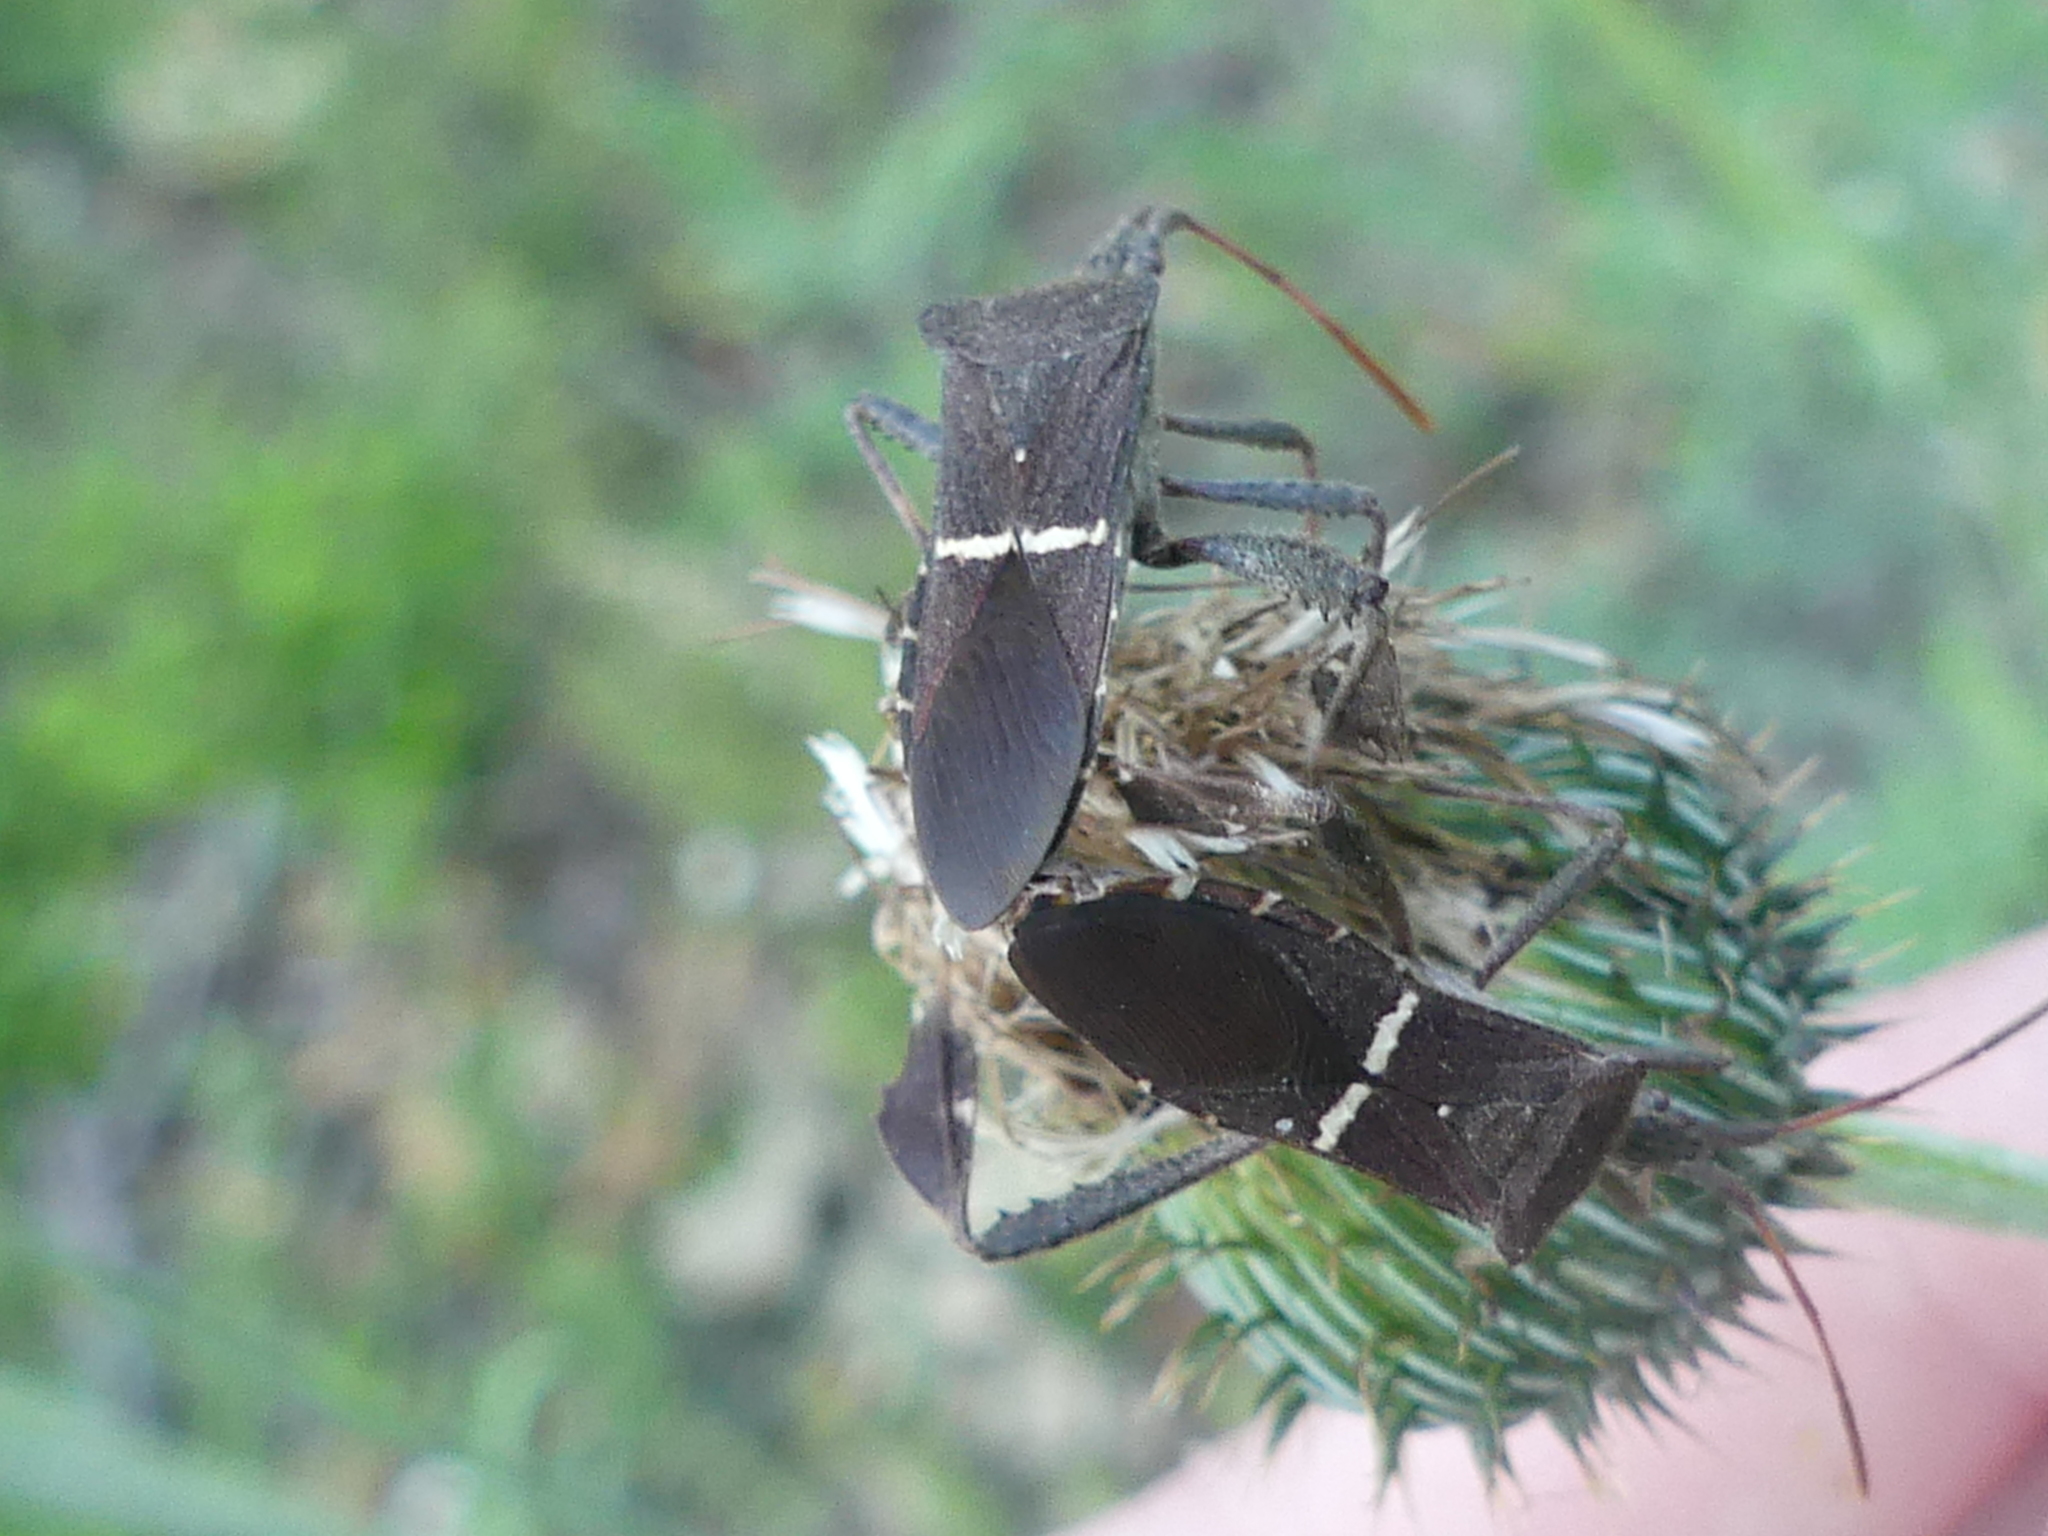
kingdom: Animalia
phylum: Arthropoda
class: Insecta
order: Hemiptera
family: Coreidae
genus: Leptoglossus
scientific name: Leptoglossus phyllopus
